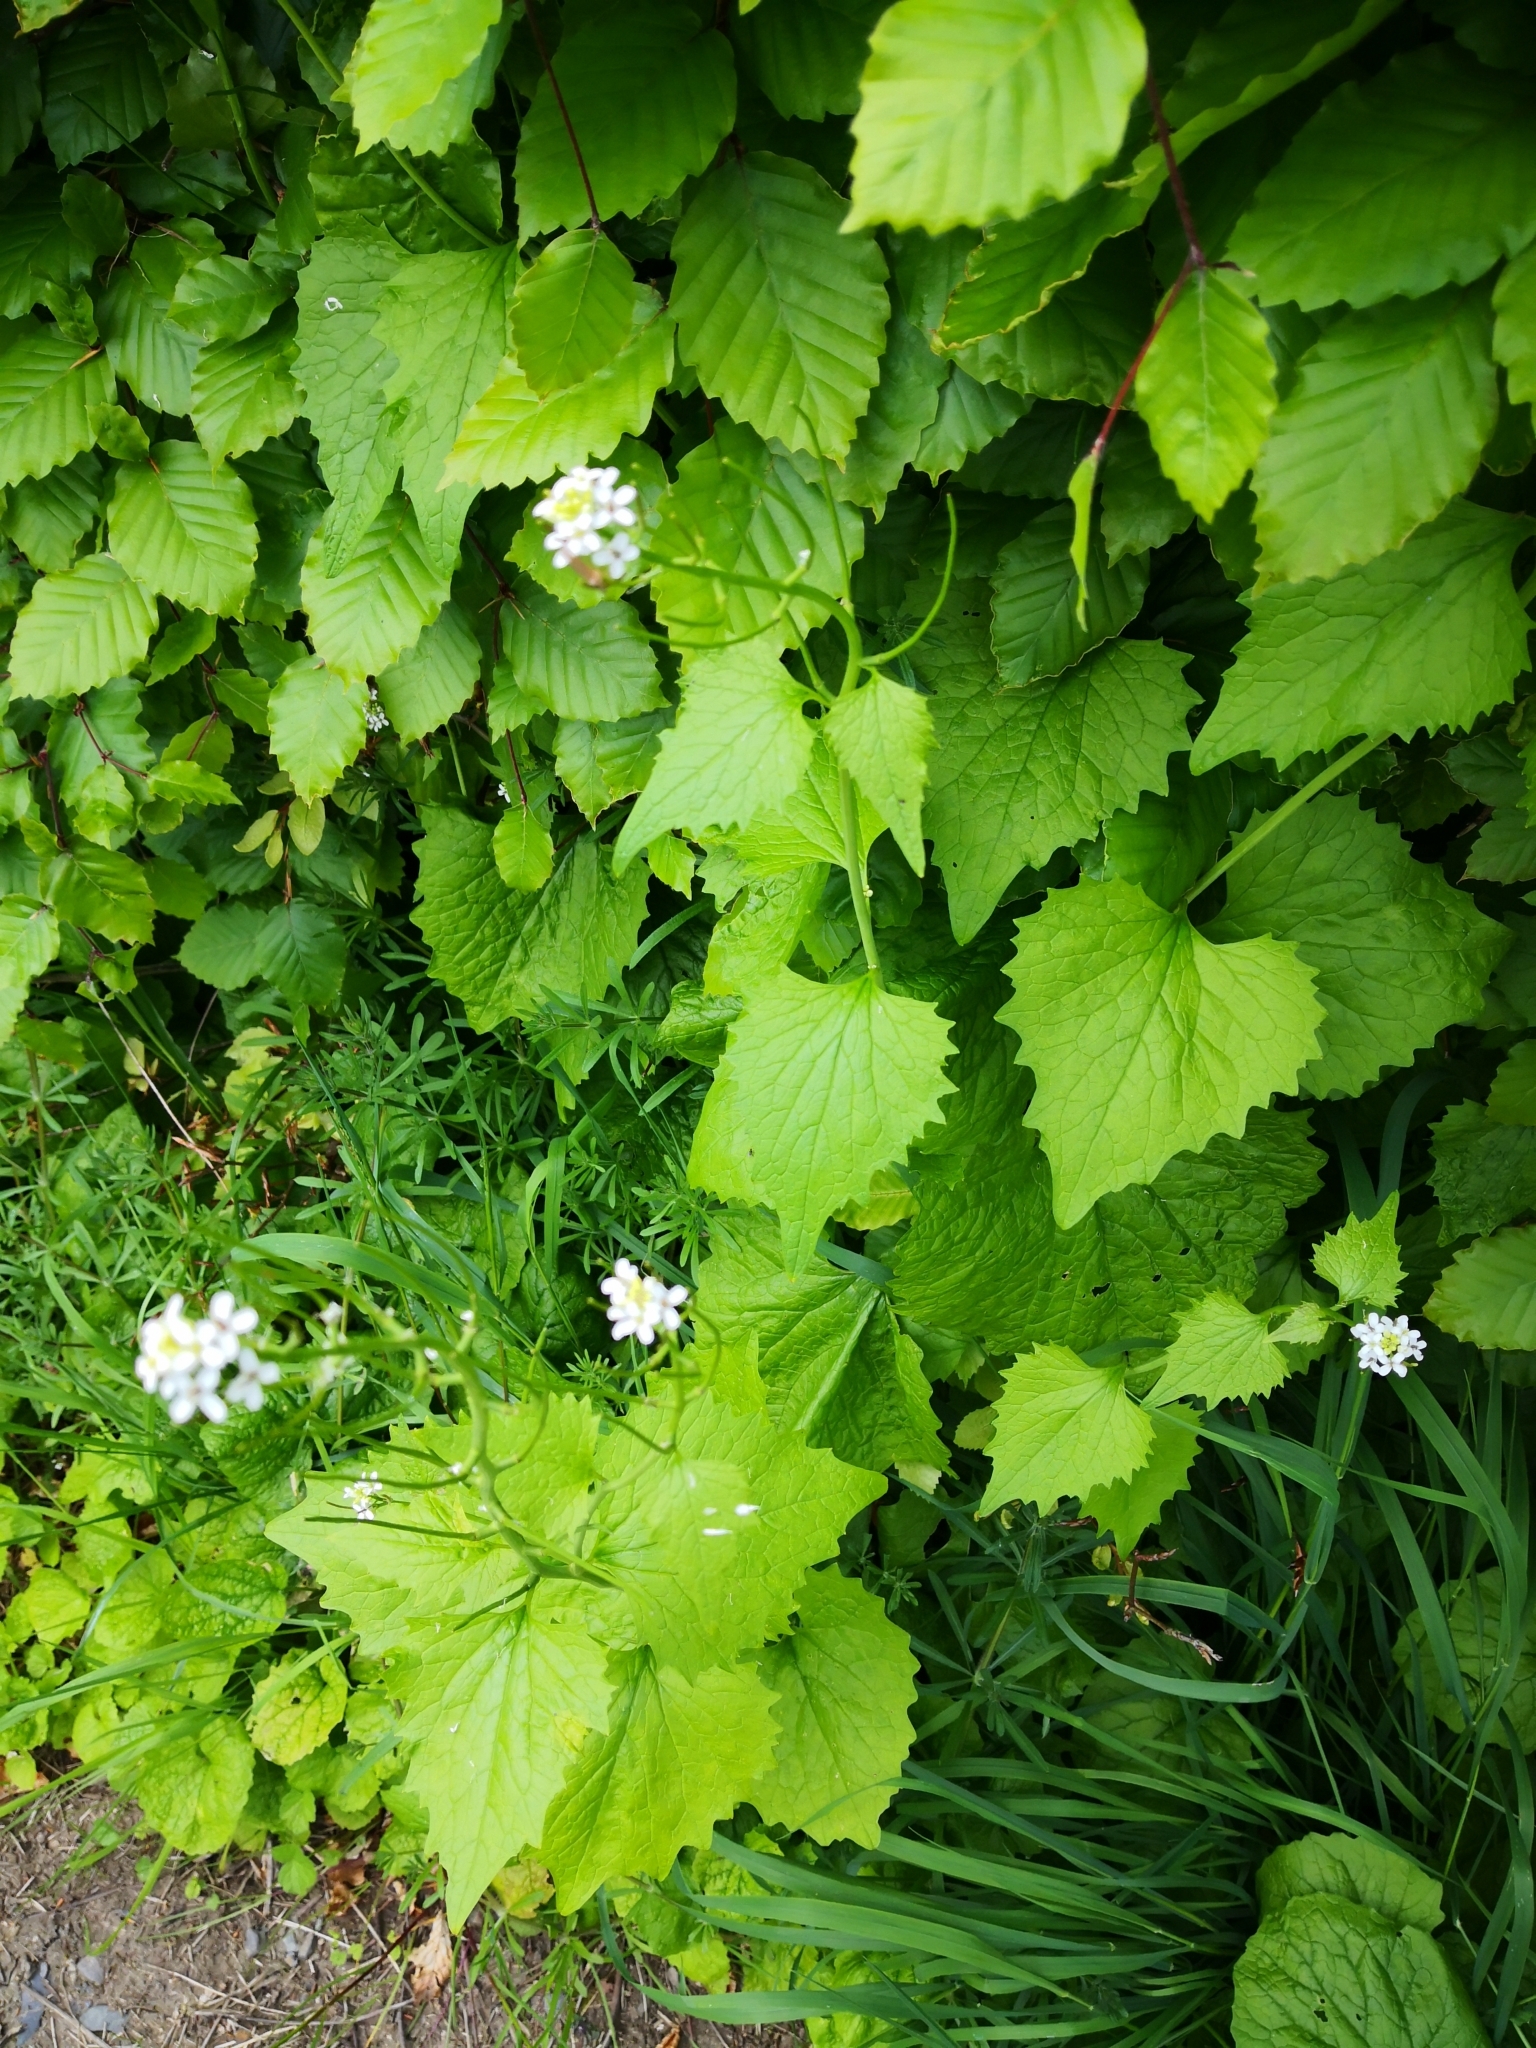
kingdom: Plantae
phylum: Tracheophyta
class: Magnoliopsida
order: Brassicales
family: Brassicaceae
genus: Alliaria
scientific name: Alliaria petiolata
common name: Garlic mustard
